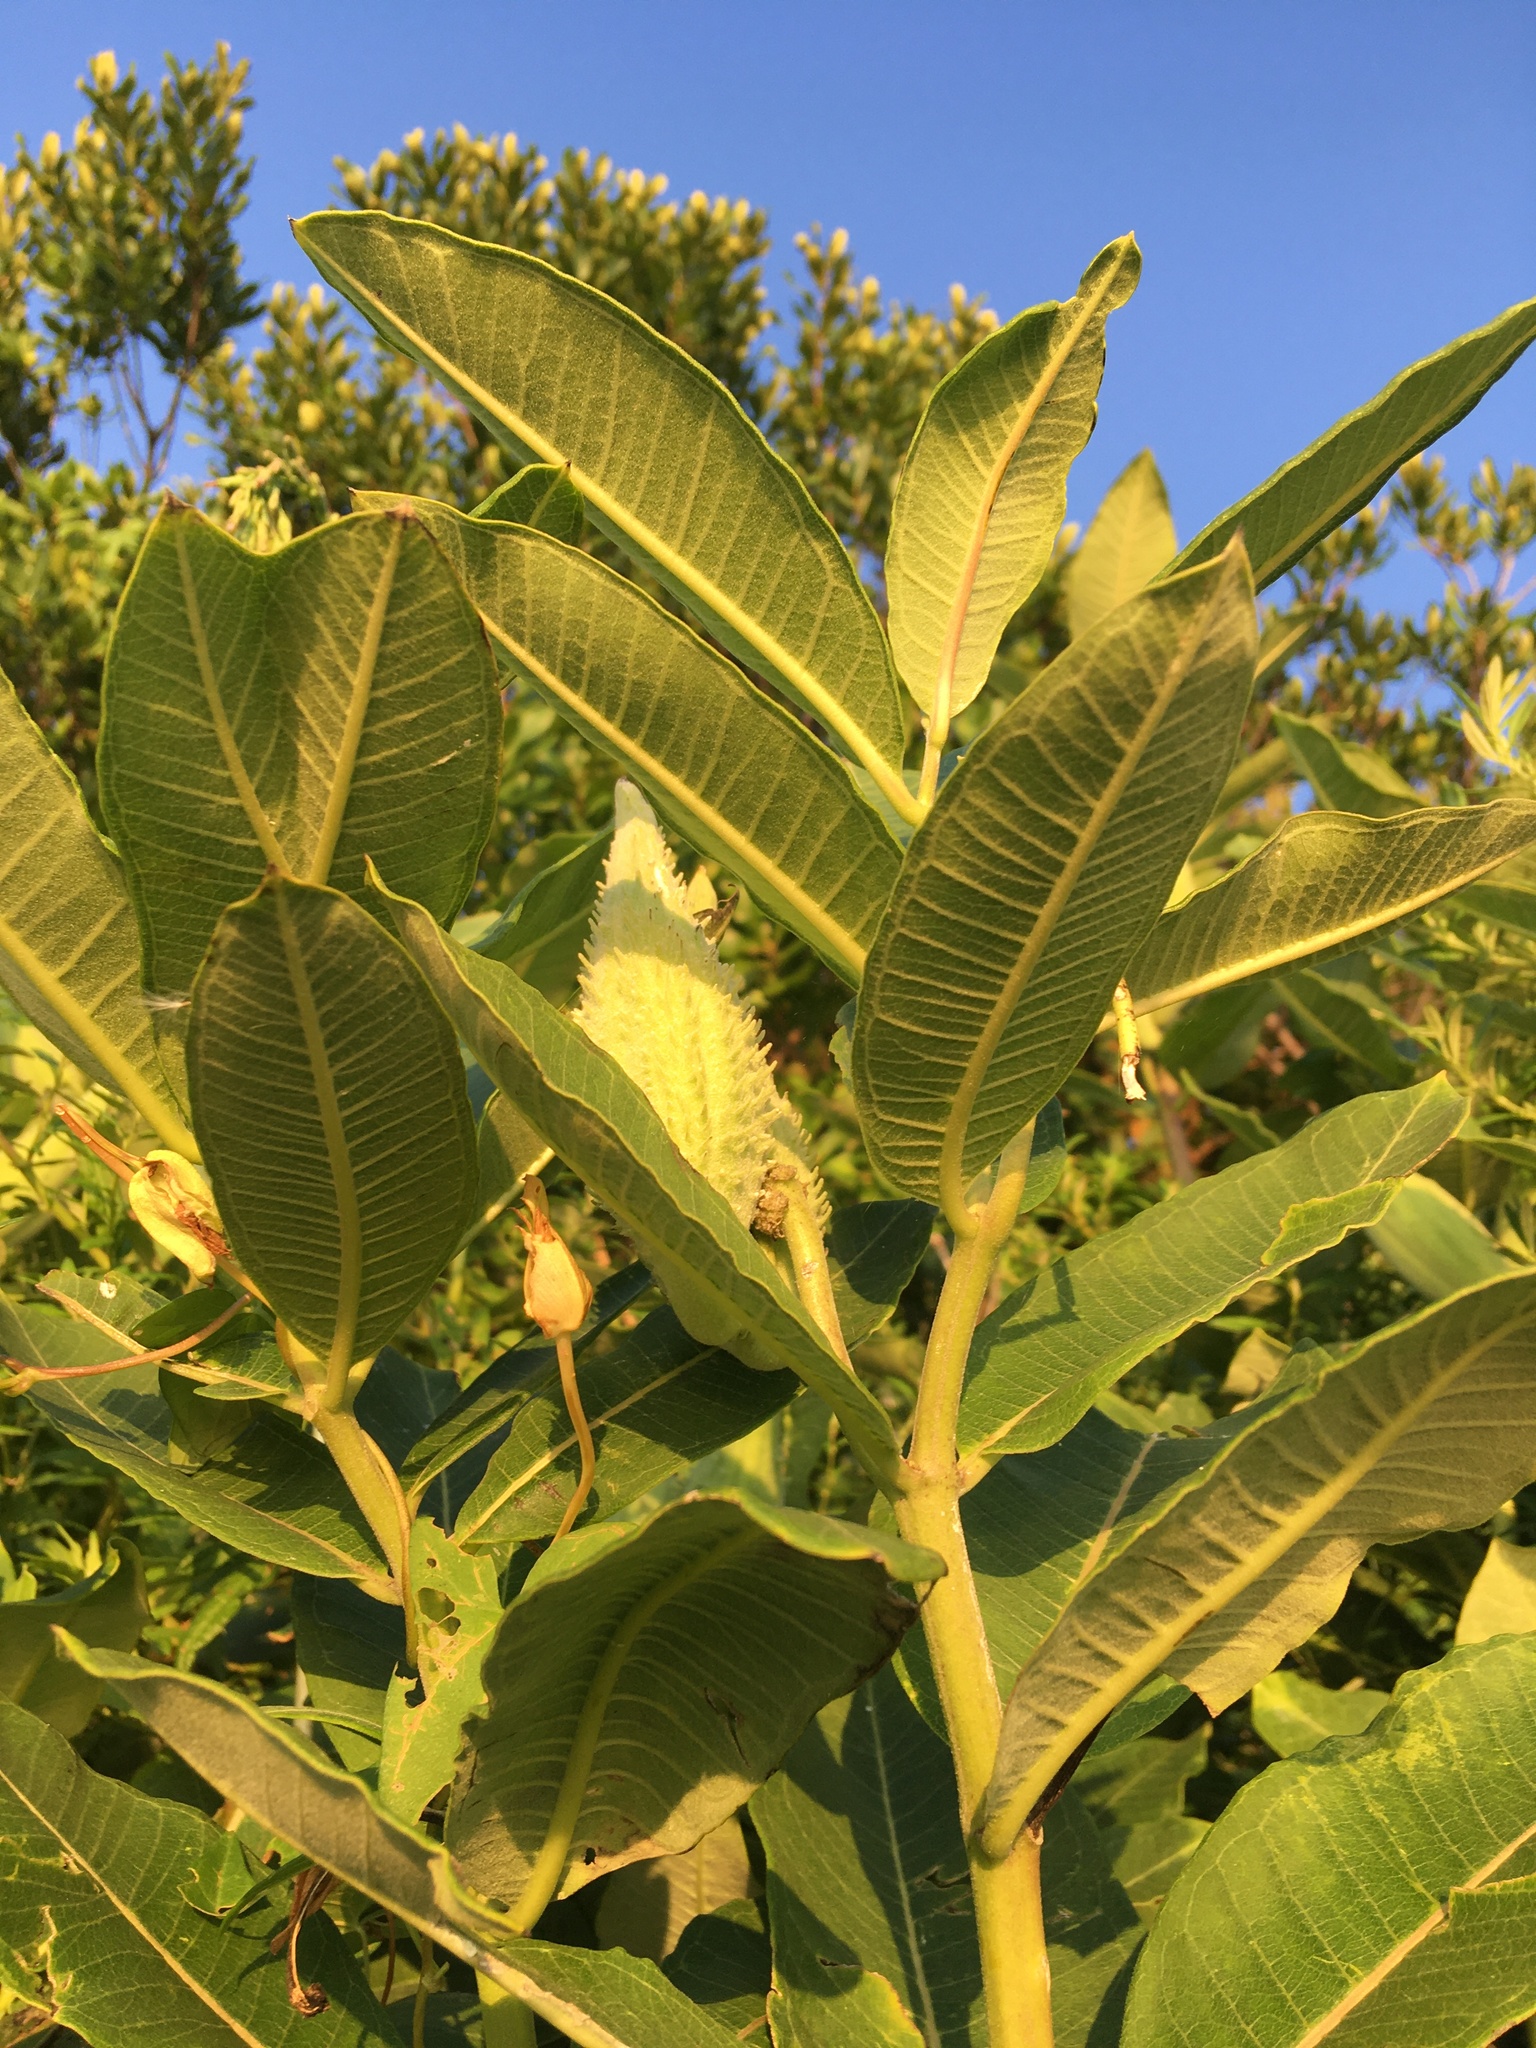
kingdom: Plantae
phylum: Tracheophyta
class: Magnoliopsida
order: Gentianales
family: Apocynaceae
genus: Asclepias
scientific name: Asclepias syriaca
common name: Common milkweed
